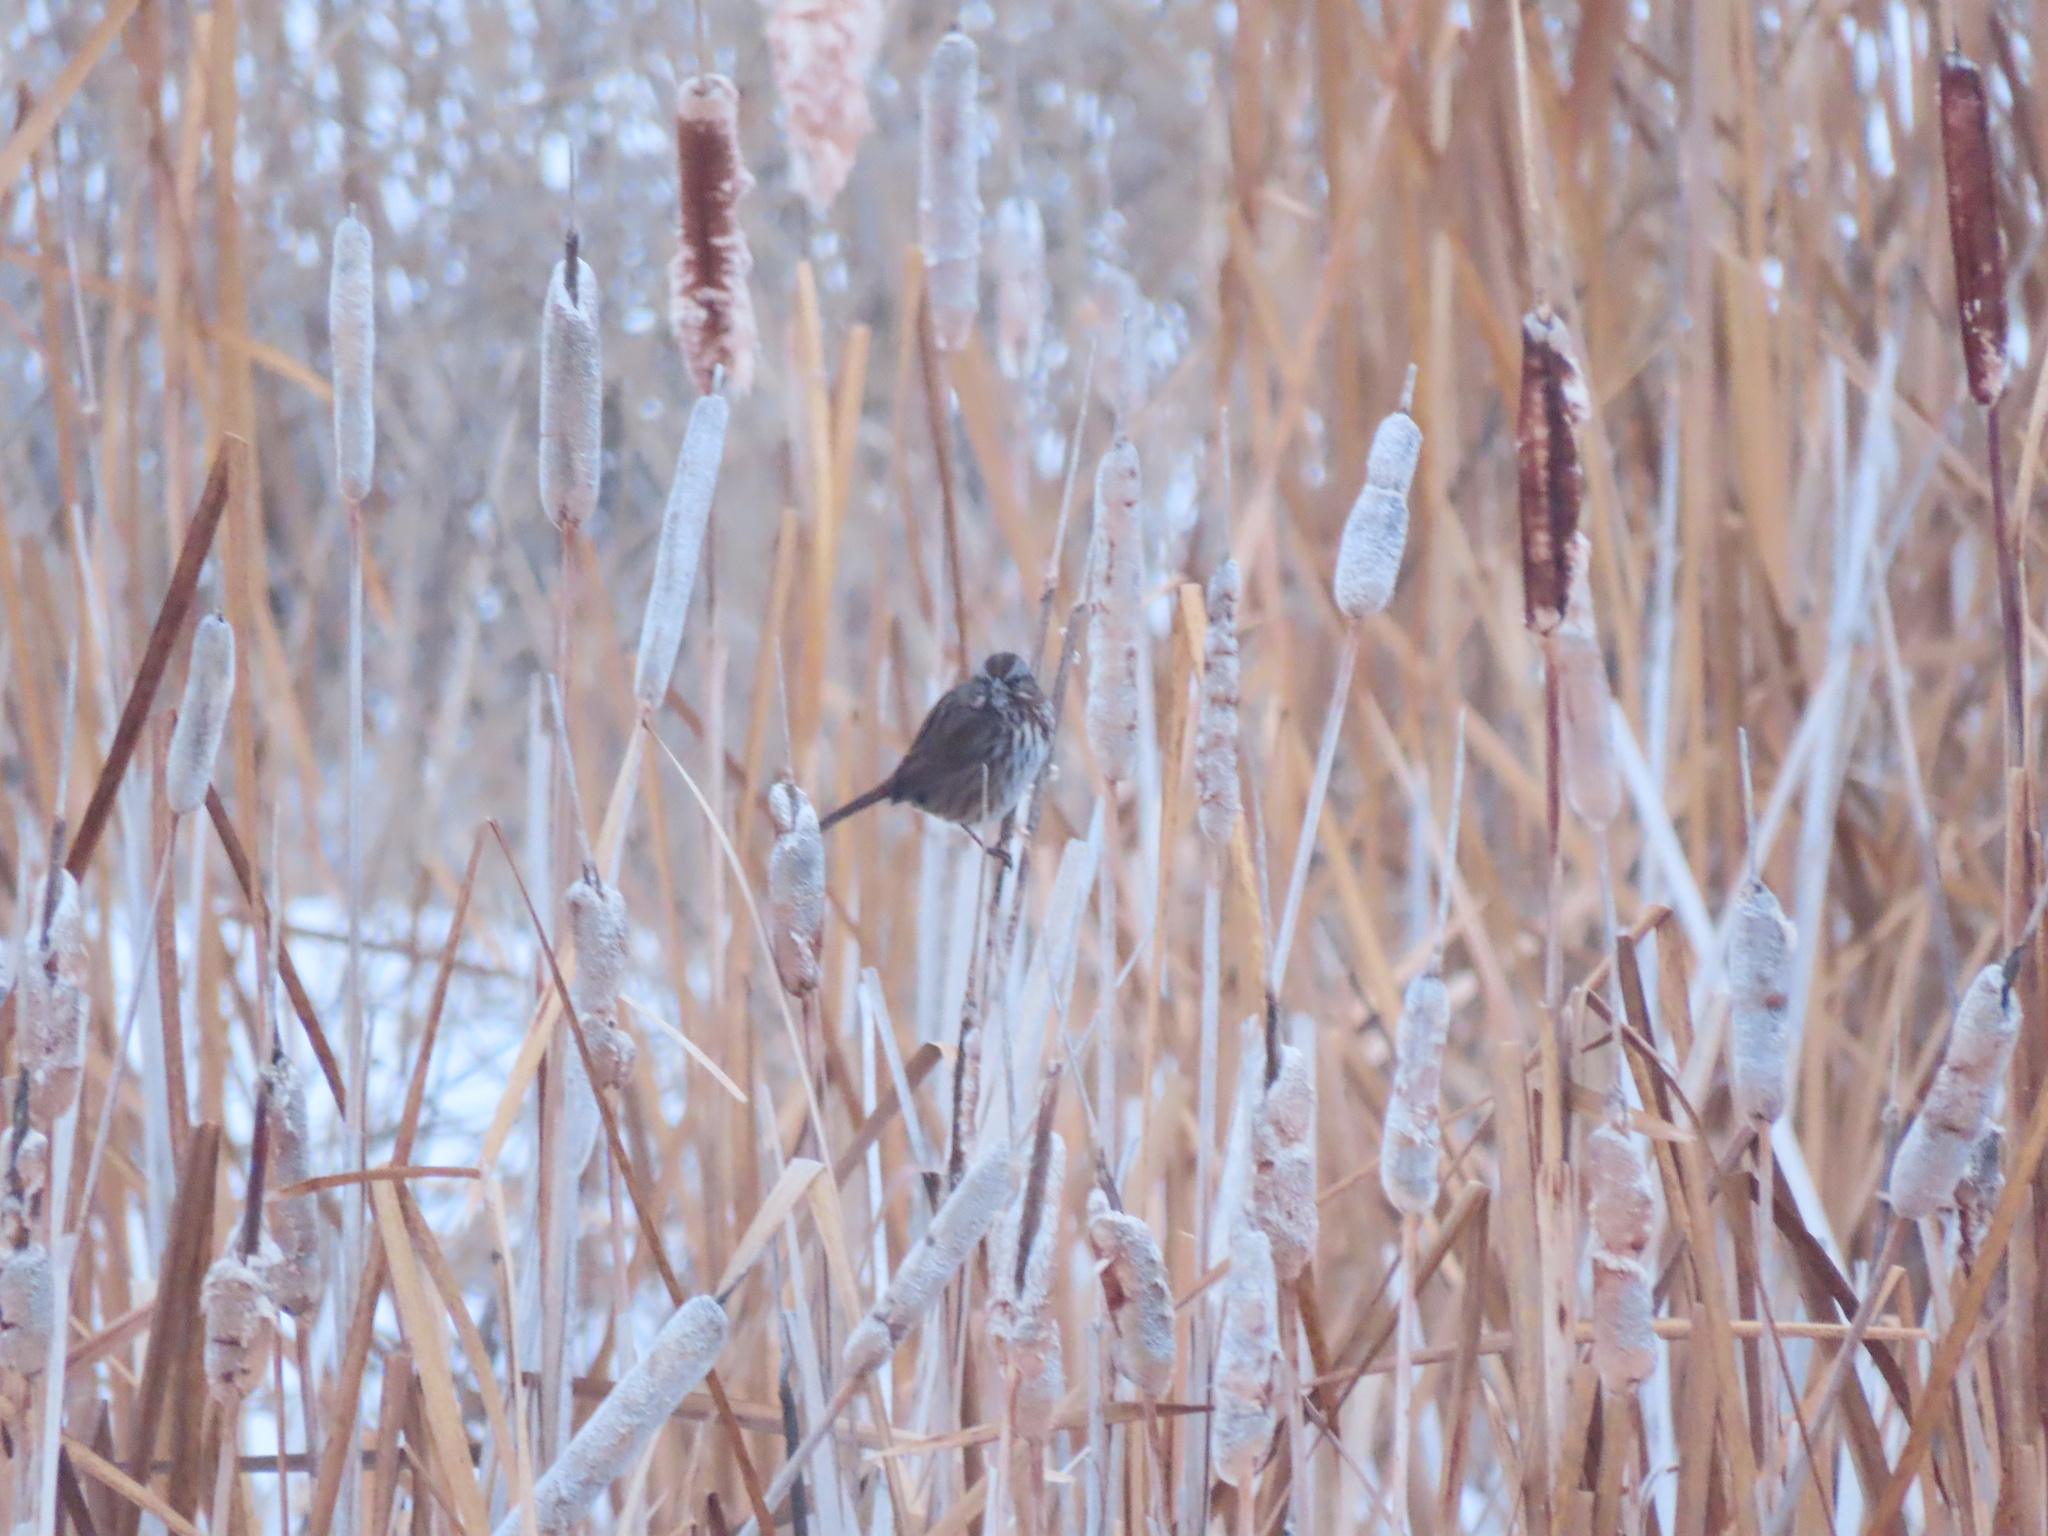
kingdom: Animalia
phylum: Chordata
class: Aves
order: Passeriformes
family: Passerellidae
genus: Melospiza
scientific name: Melospiza melodia
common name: Song sparrow
